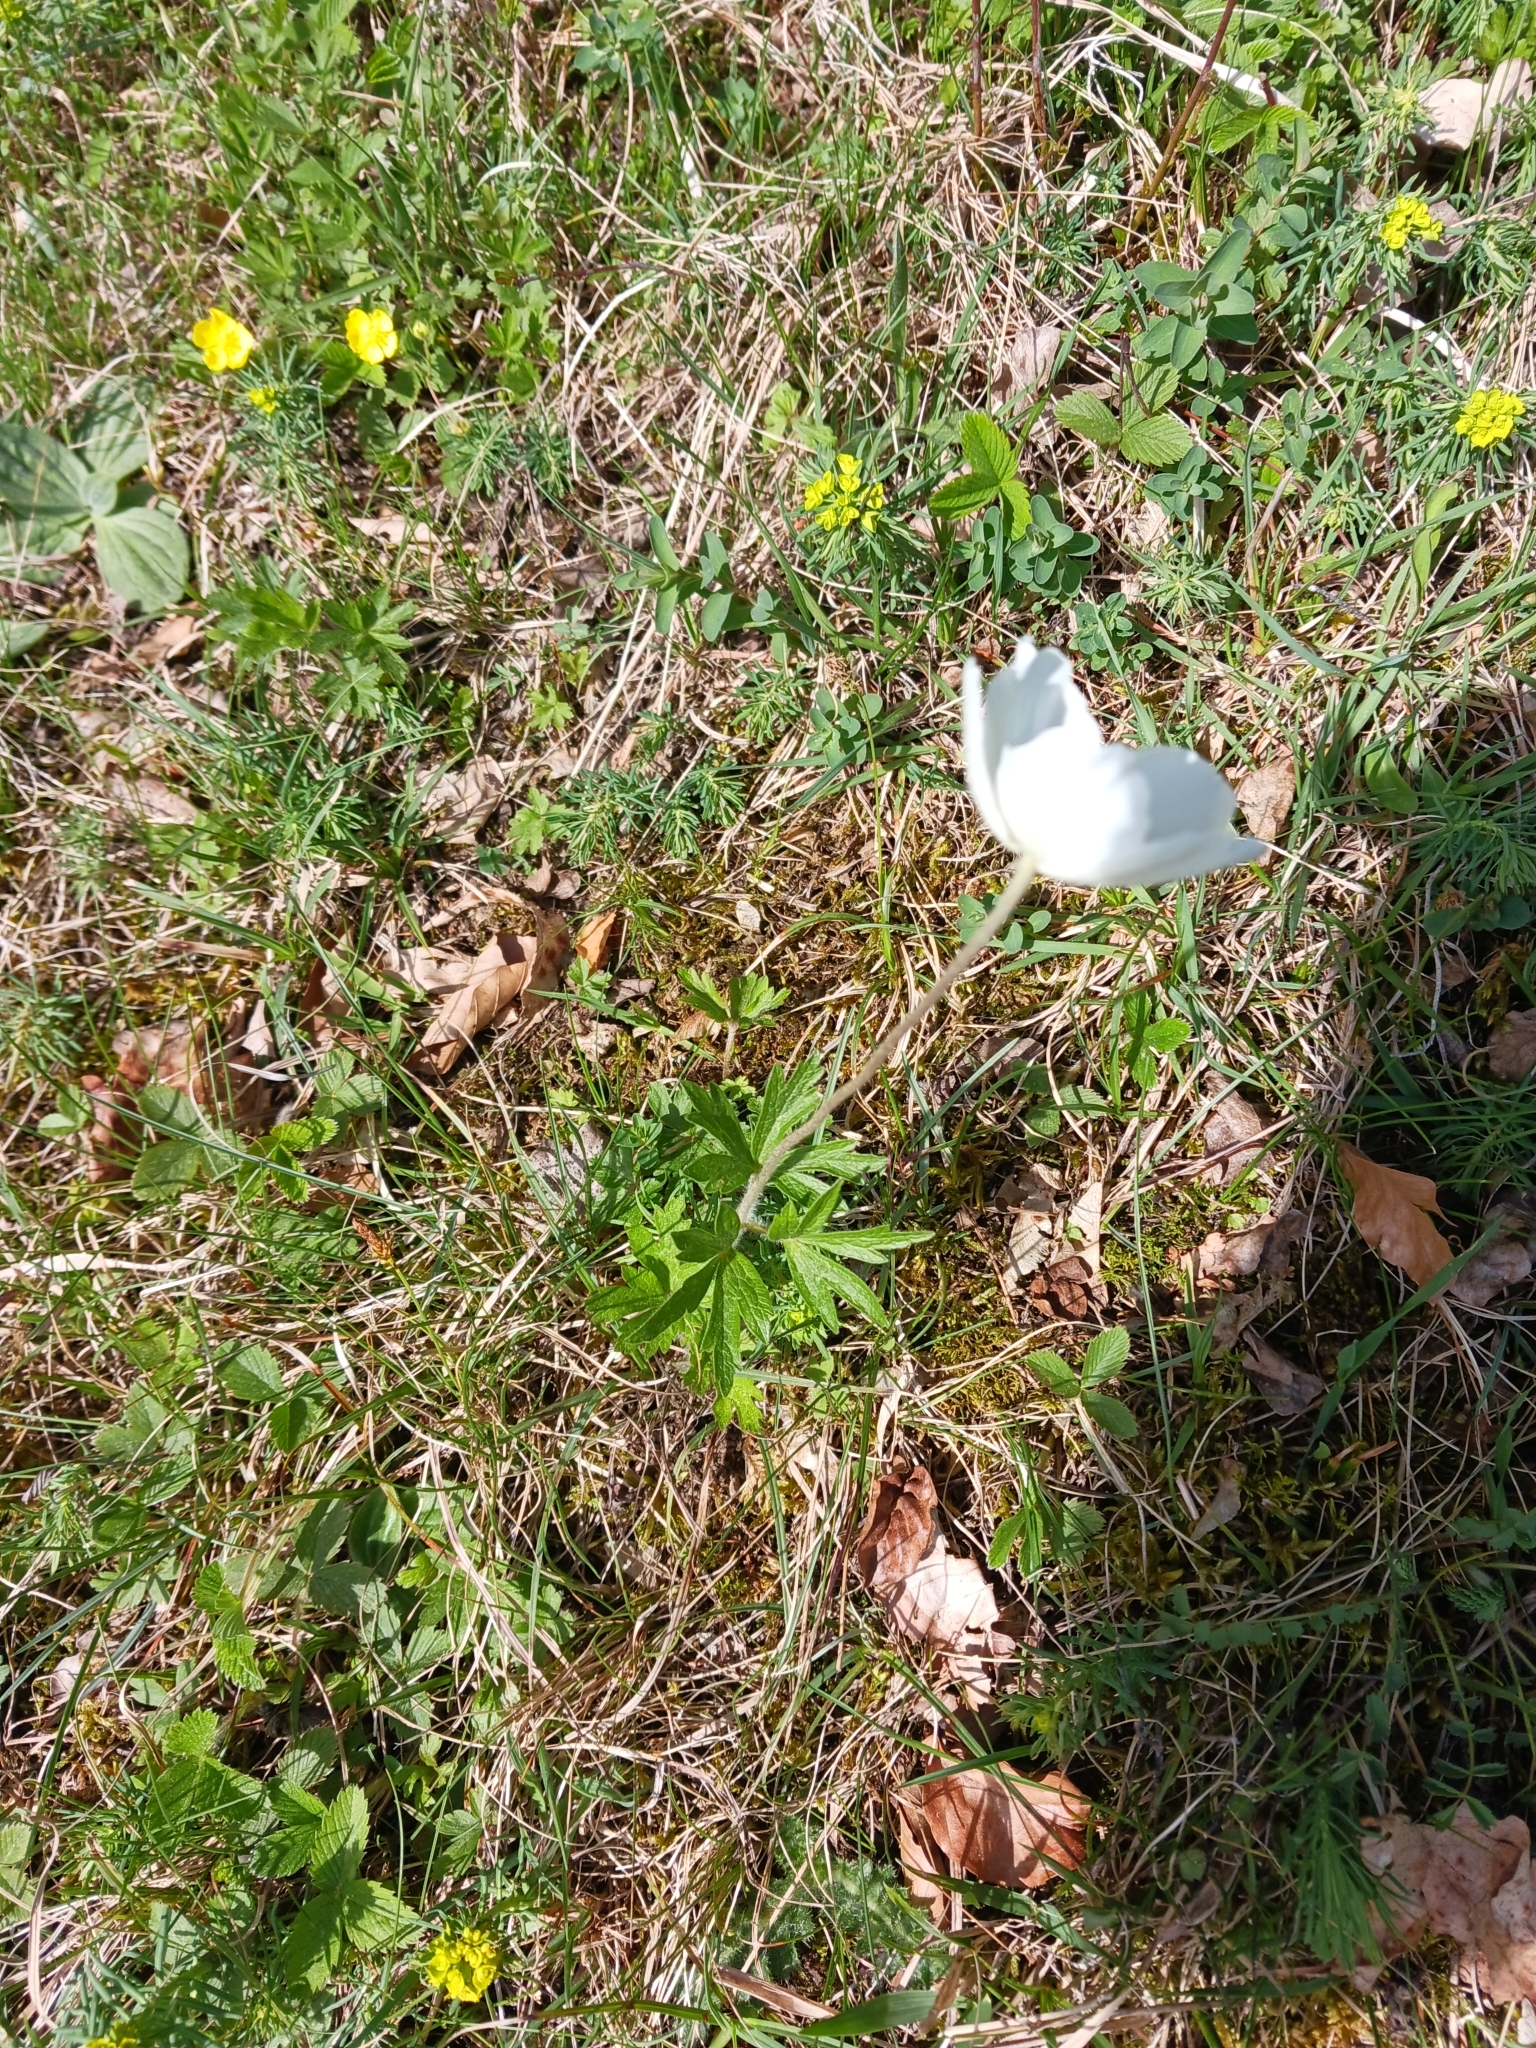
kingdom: Plantae
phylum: Tracheophyta
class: Magnoliopsida
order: Ranunculales
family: Ranunculaceae
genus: Anemone
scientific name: Anemone sylvestris
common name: Snowdrop anemone
